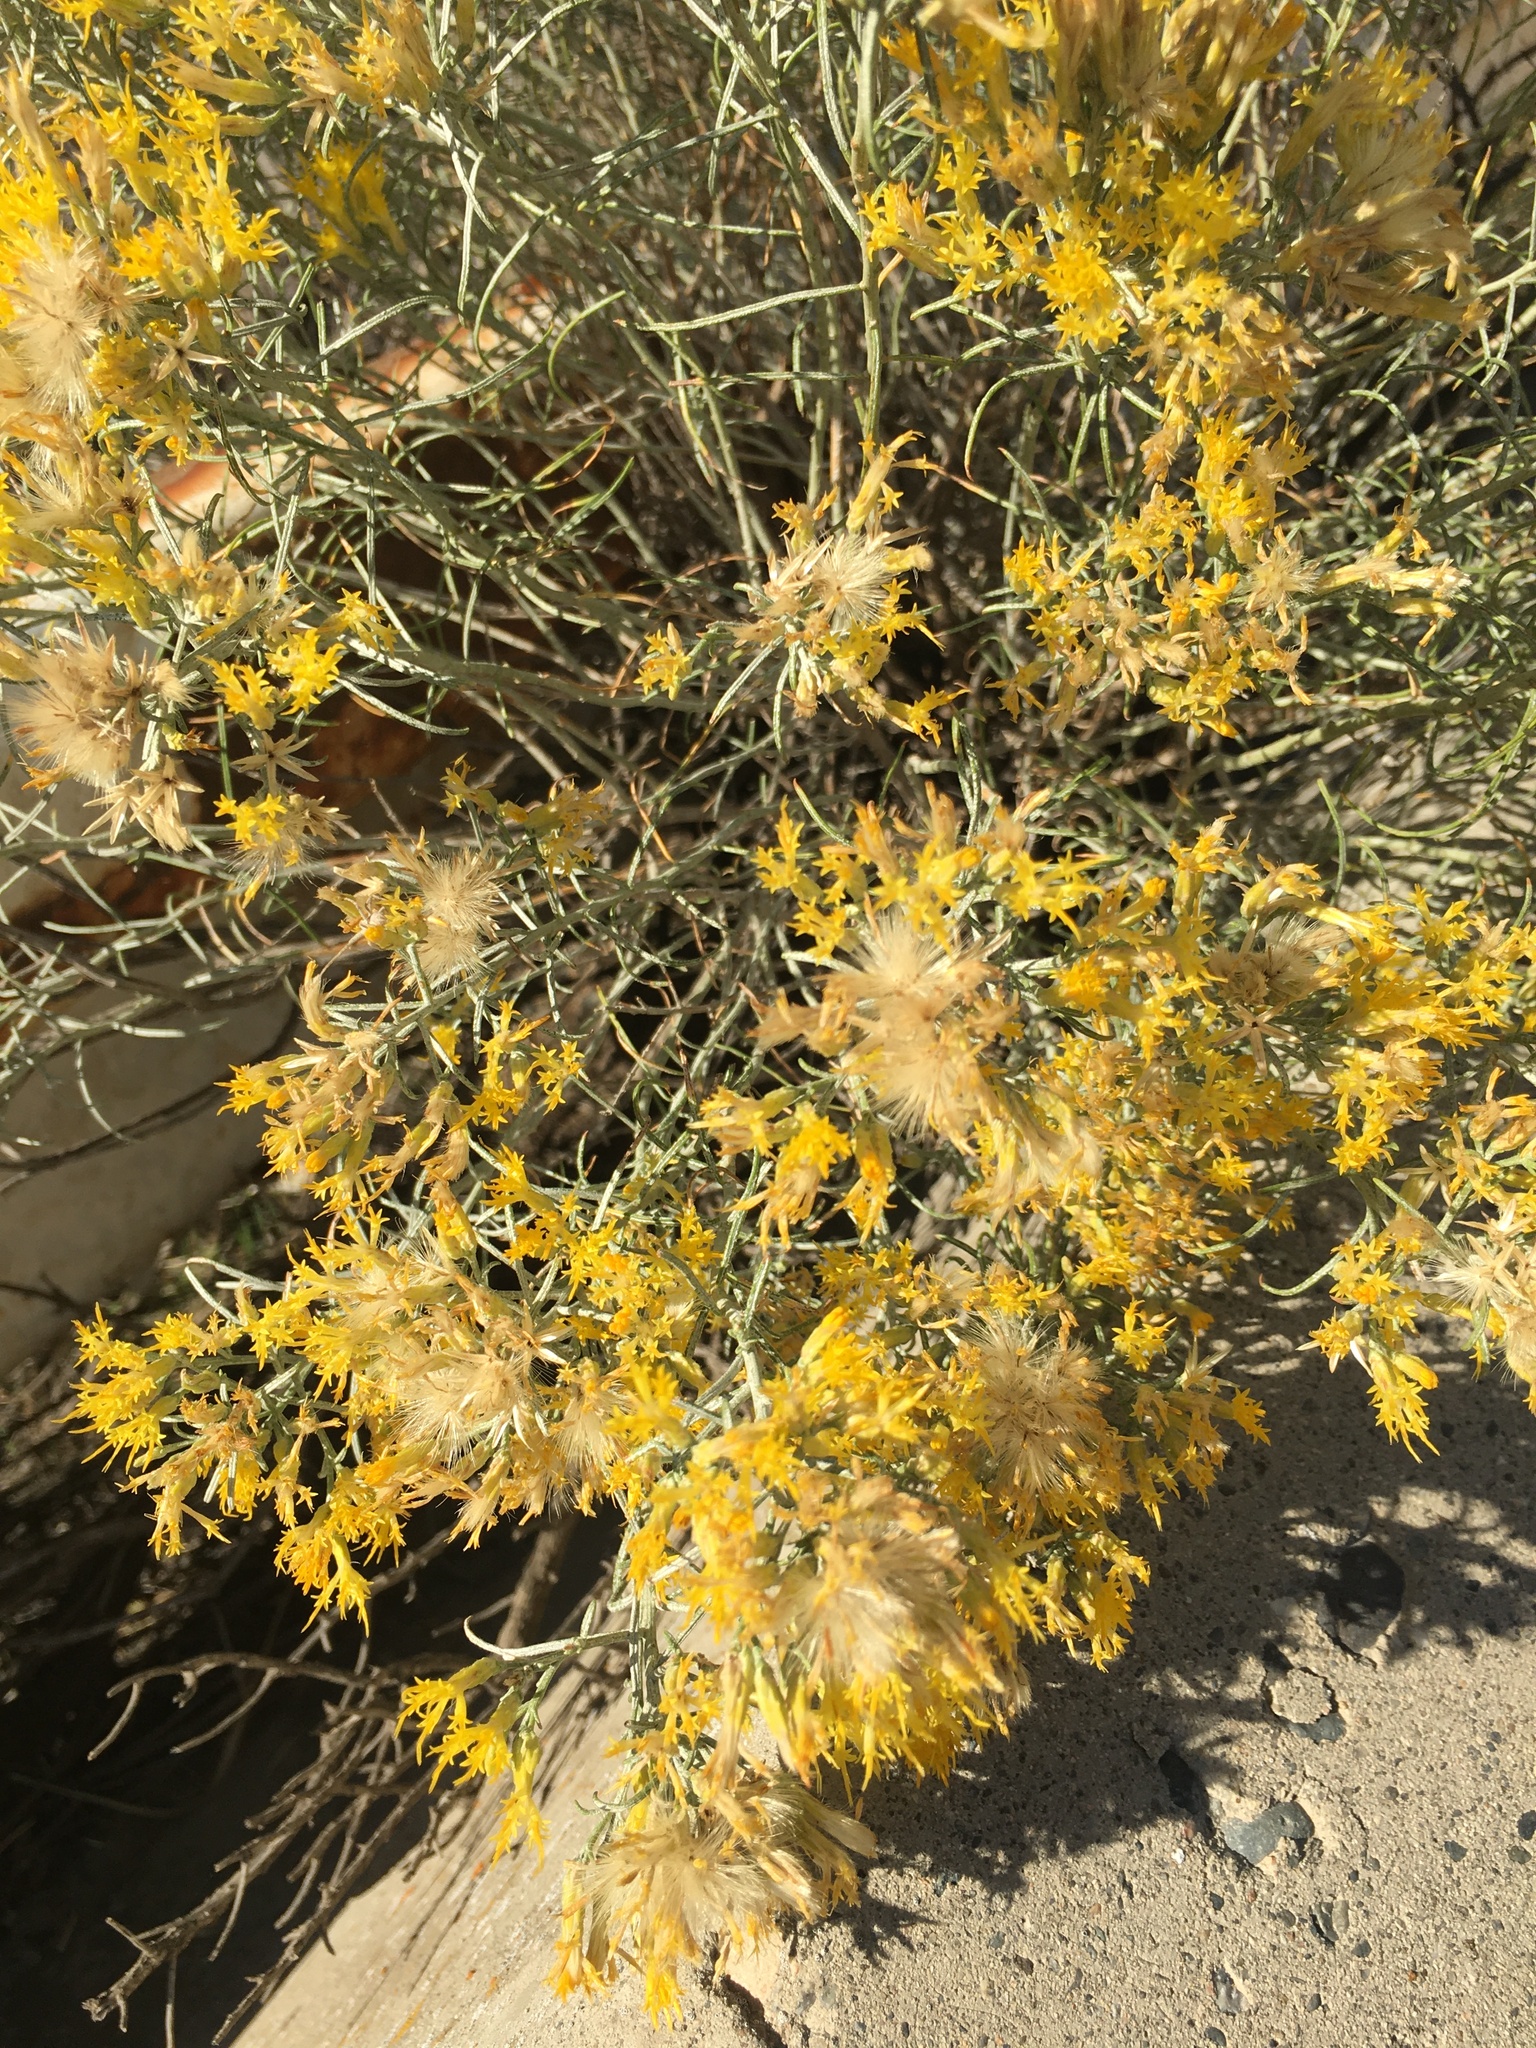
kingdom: Plantae
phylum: Tracheophyta
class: Magnoliopsida
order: Asterales
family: Asteraceae
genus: Ericameria
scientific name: Ericameria nauseosa
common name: Rubber rabbitbrush
